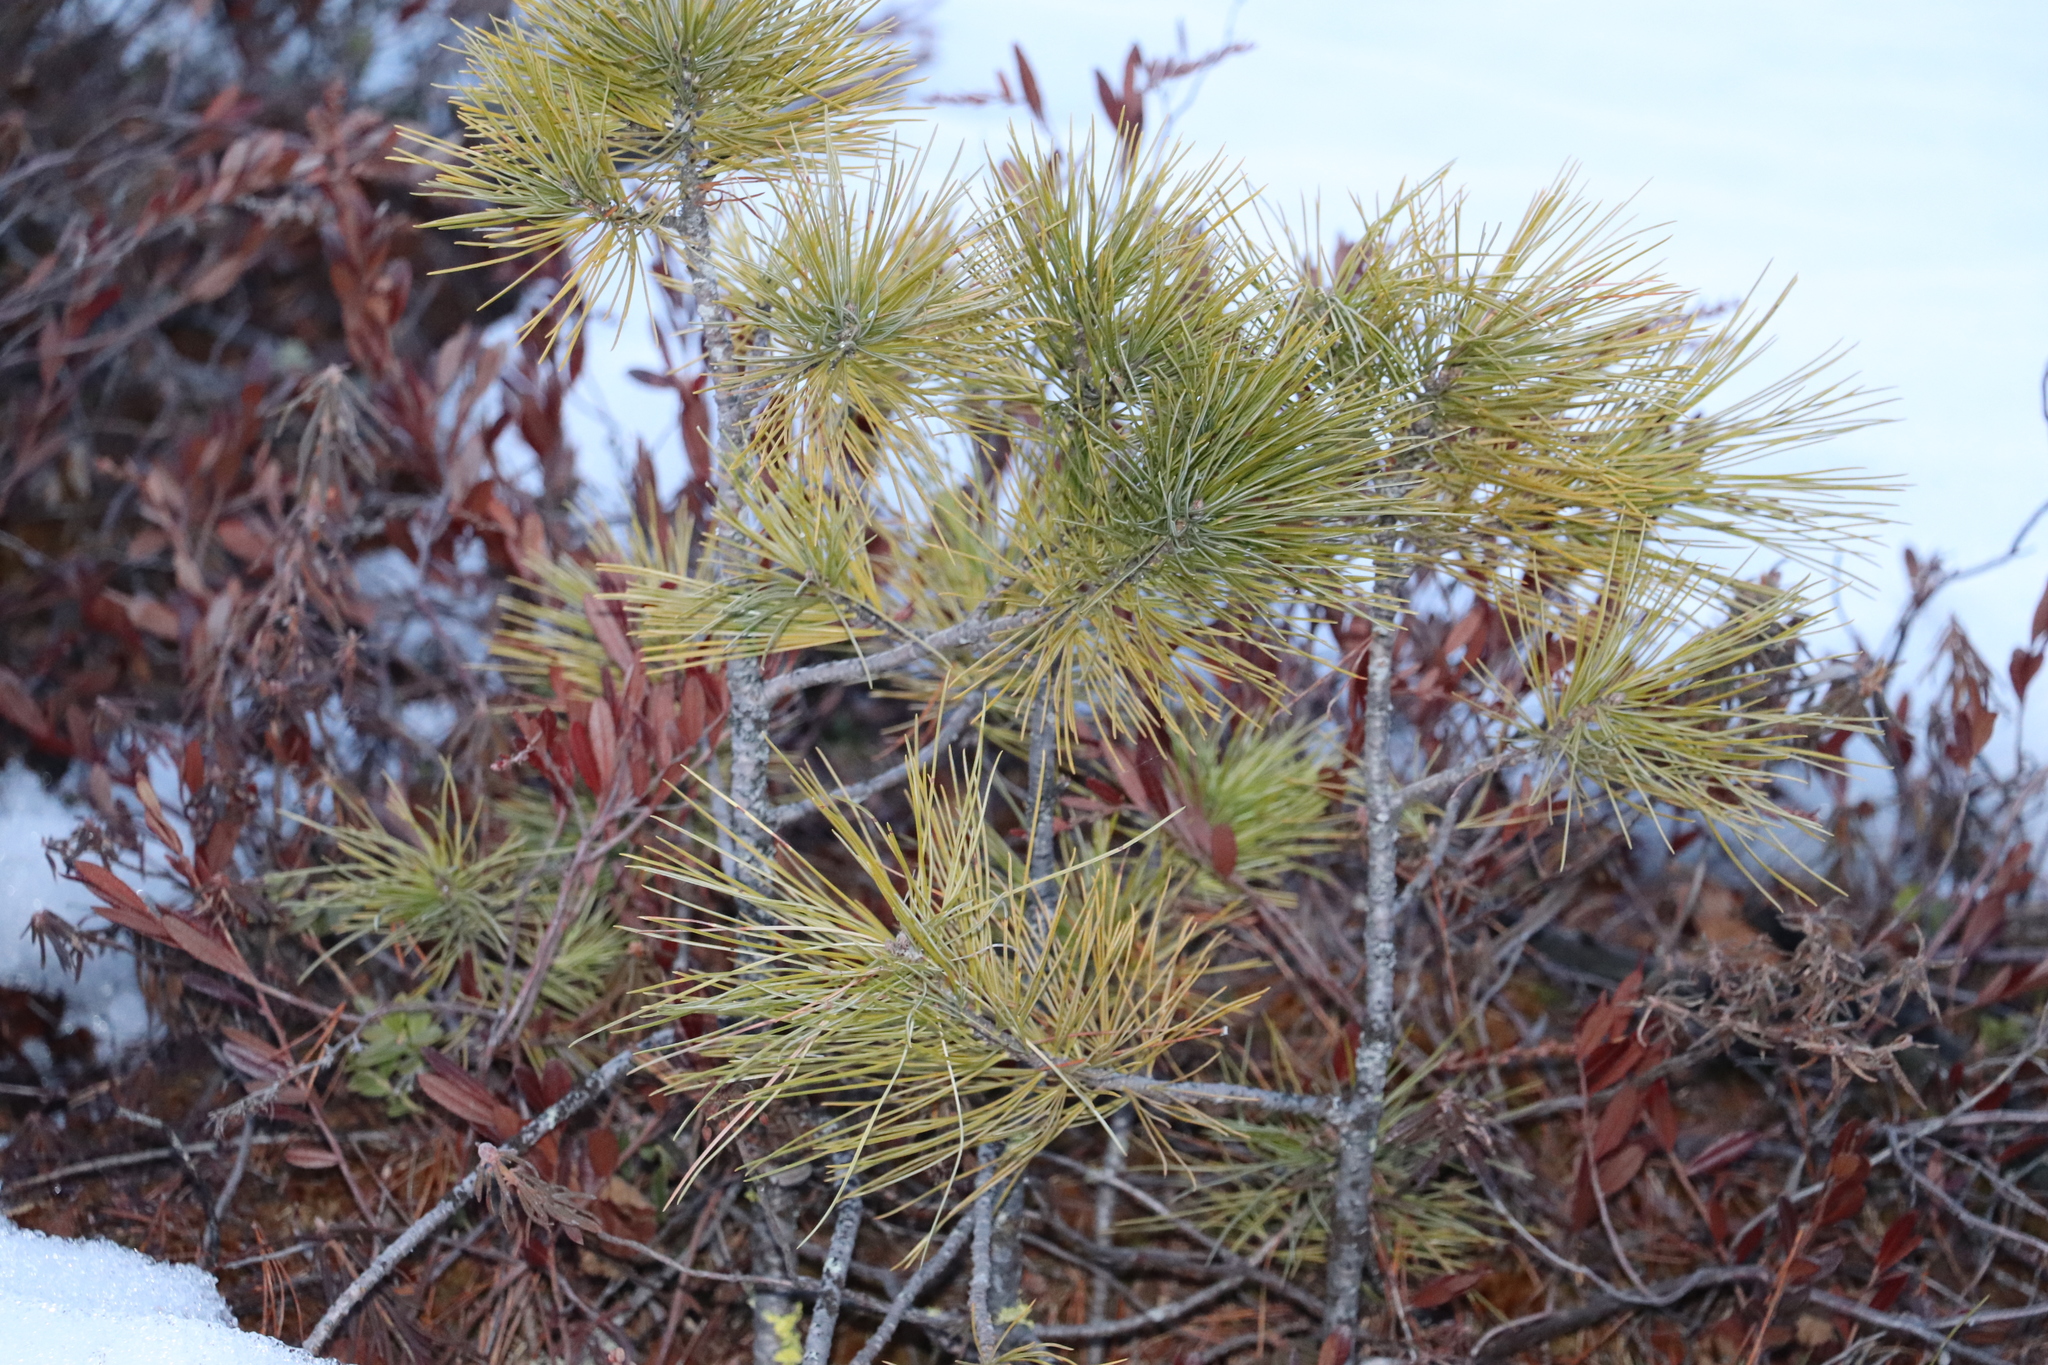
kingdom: Plantae
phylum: Tracheophyta
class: Pinopsida
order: Pinales
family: Pinaceae
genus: Pinus
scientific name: Pinus sibirica
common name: Siberian pine
